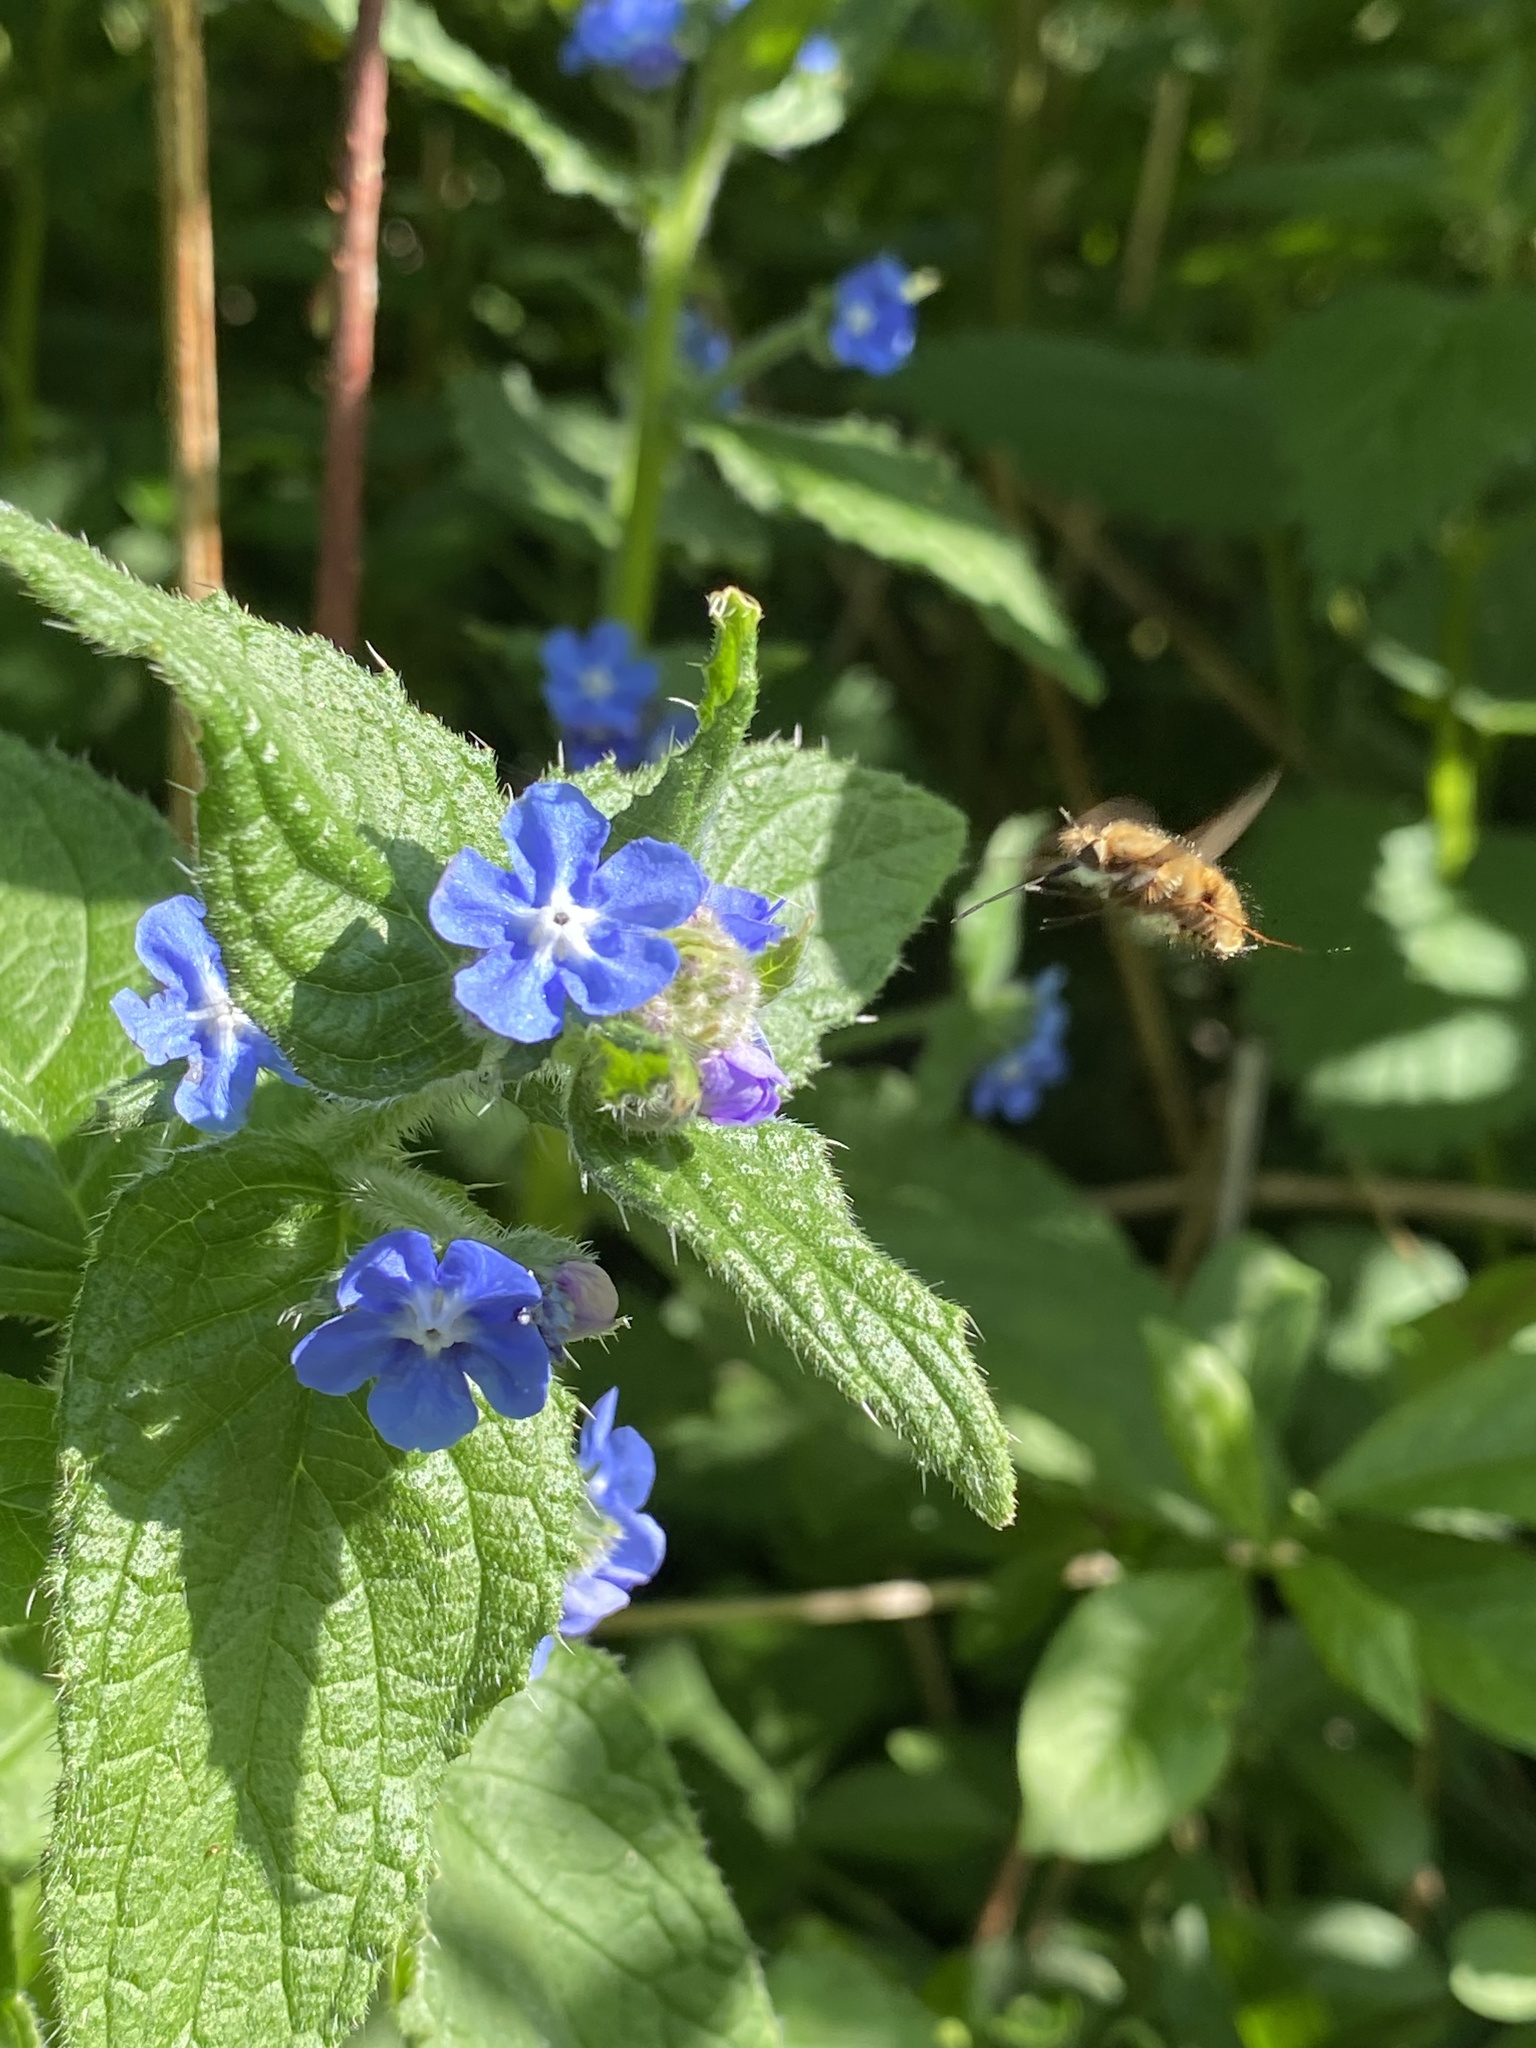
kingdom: Animalia
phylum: Arthropoda
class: Insecta
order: Diptera
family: Bombyliidae
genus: Bombylius
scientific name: Bombylius major
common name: Bee fly
